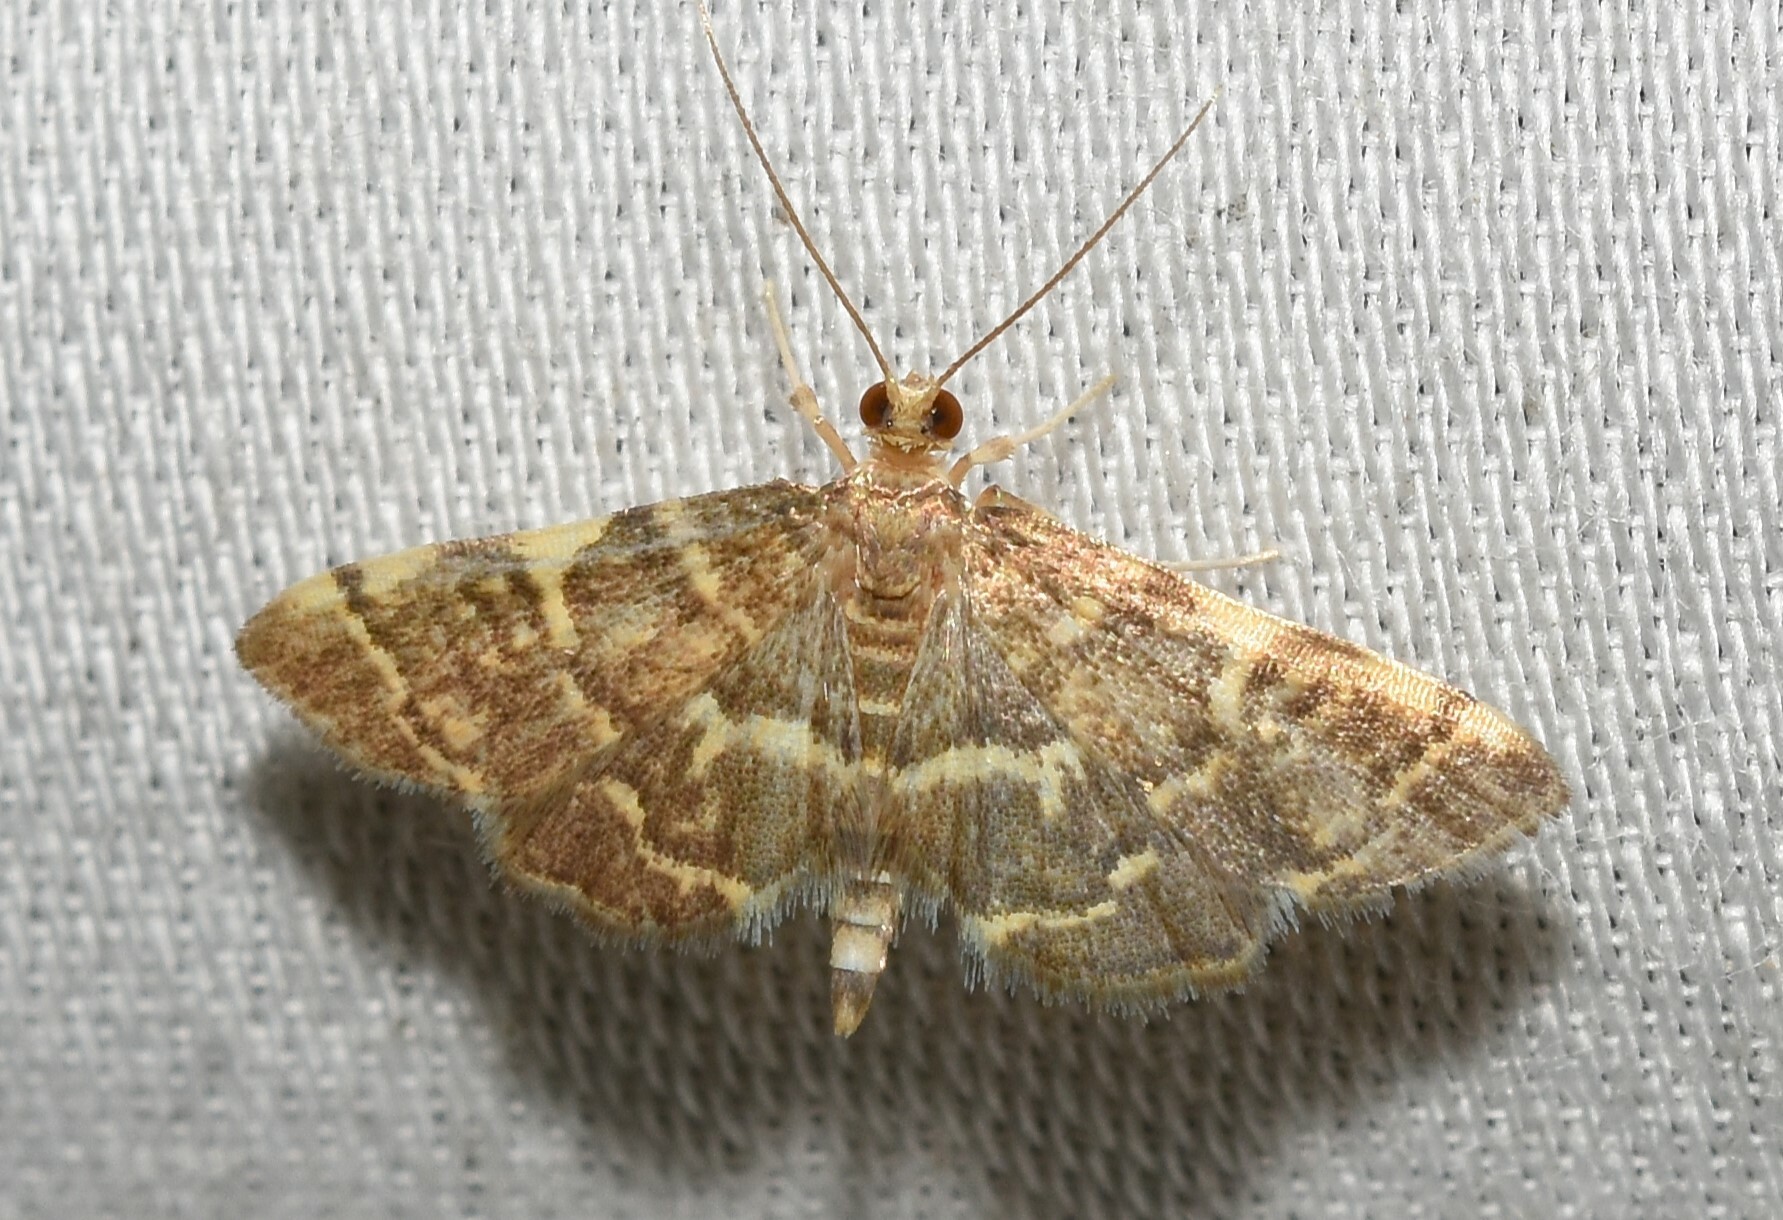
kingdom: Animalia
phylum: Arthropoda
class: Insecta
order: Lepidoptera
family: Crambidae
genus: Anageshna
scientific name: Anageshna primordialis
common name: Yellow-spotted webworm moth
